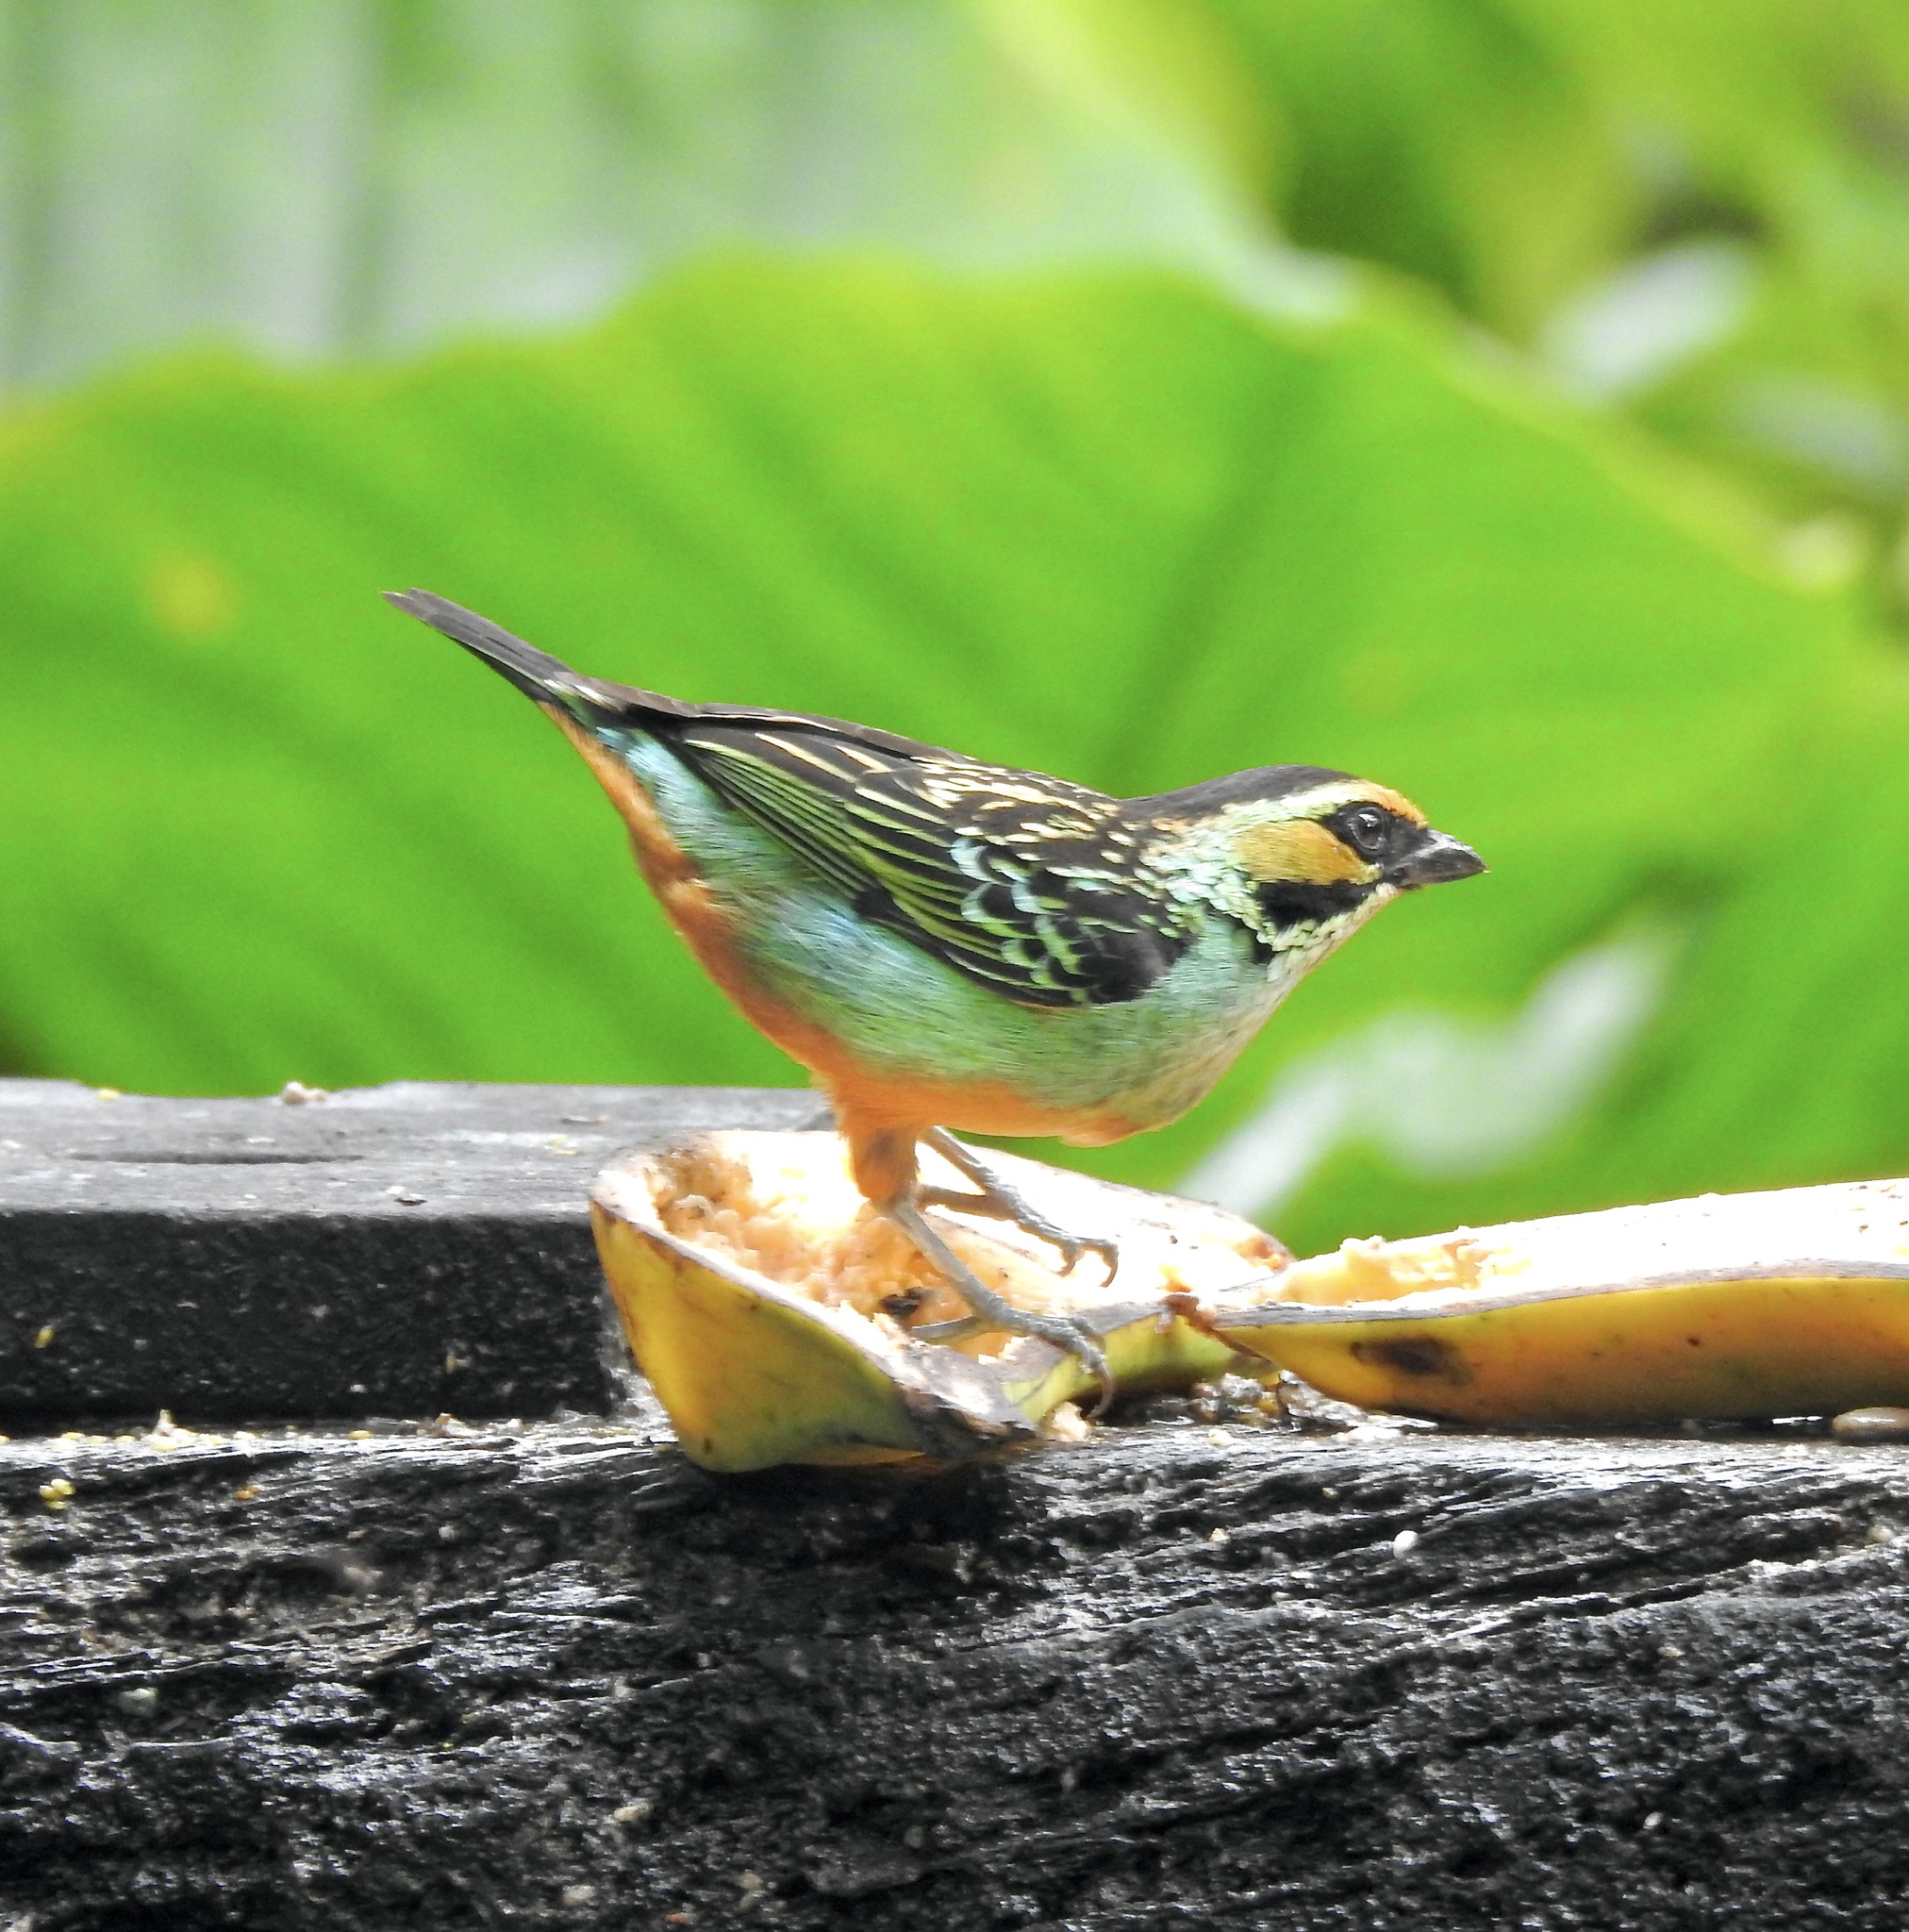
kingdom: Animalia
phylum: Chordata
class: Aves
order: Passeriformes
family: Thraupidae
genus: Tangara
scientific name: Tangara chrysotis
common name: Golden-eared tanager
